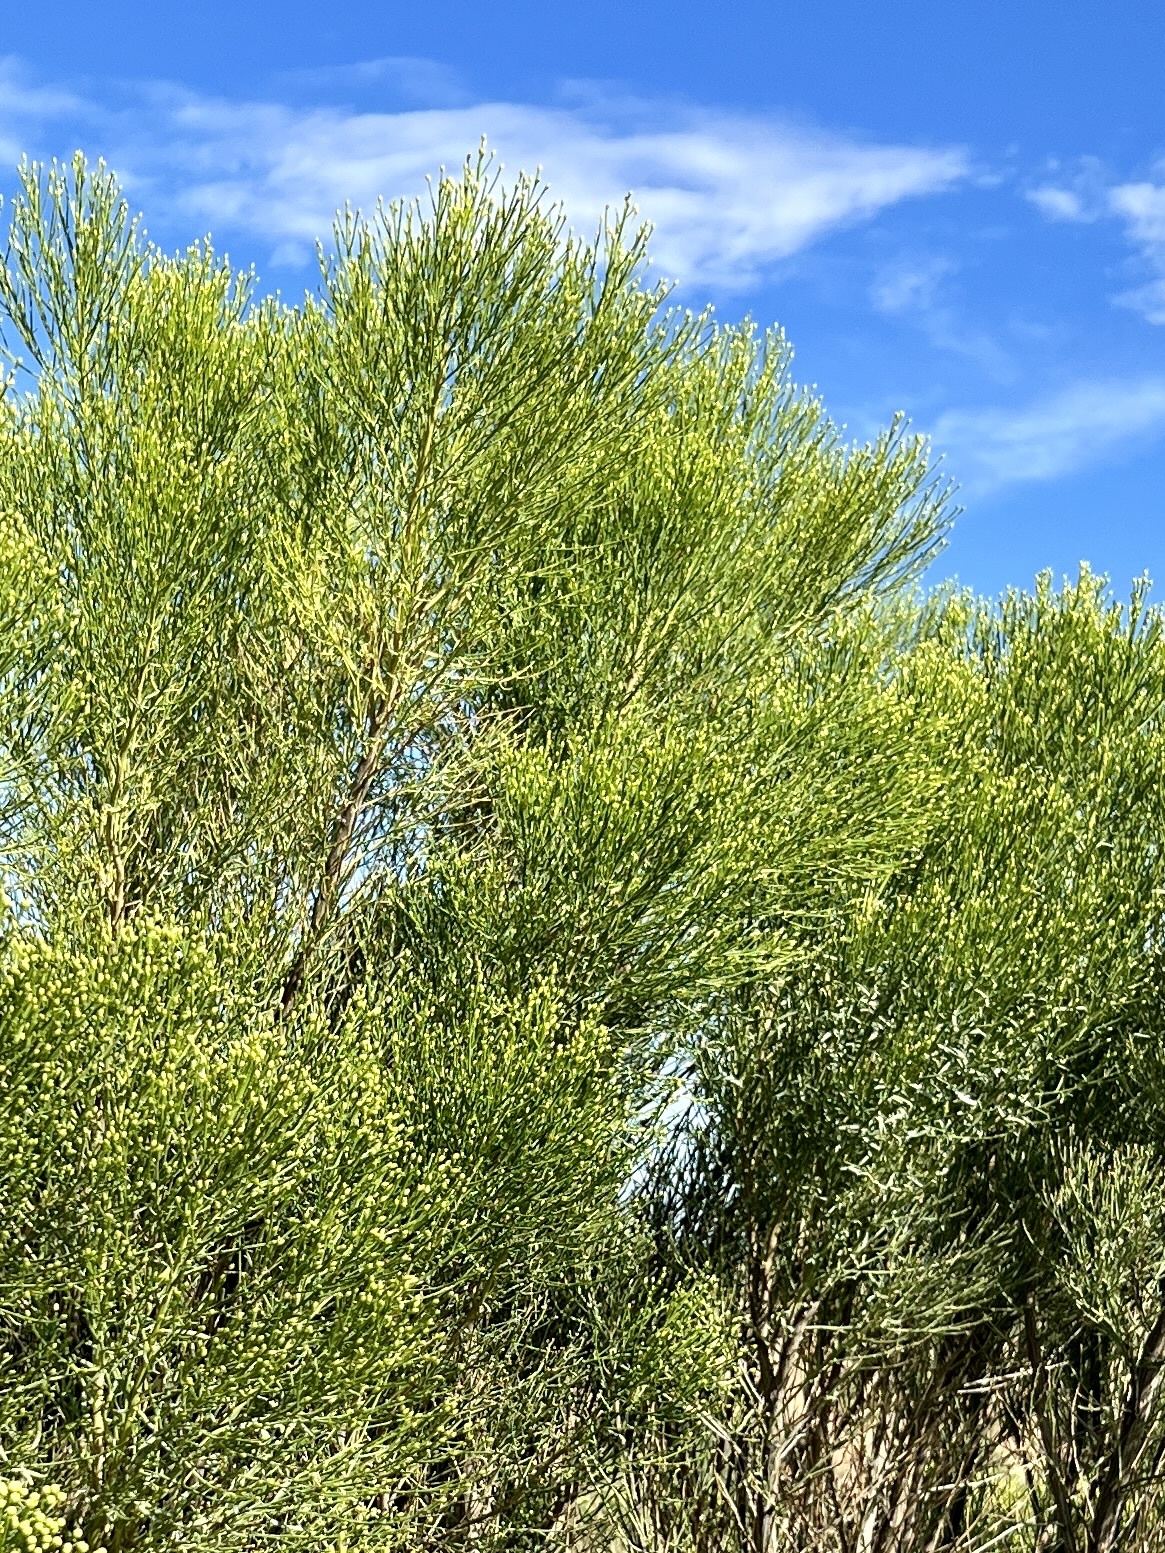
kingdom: Plantae
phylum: Tracheophyta
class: Magnoliopsida
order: Asterales
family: Asteraceae
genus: Baccharis
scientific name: Baccharis sarothroides
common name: Desert-broom
